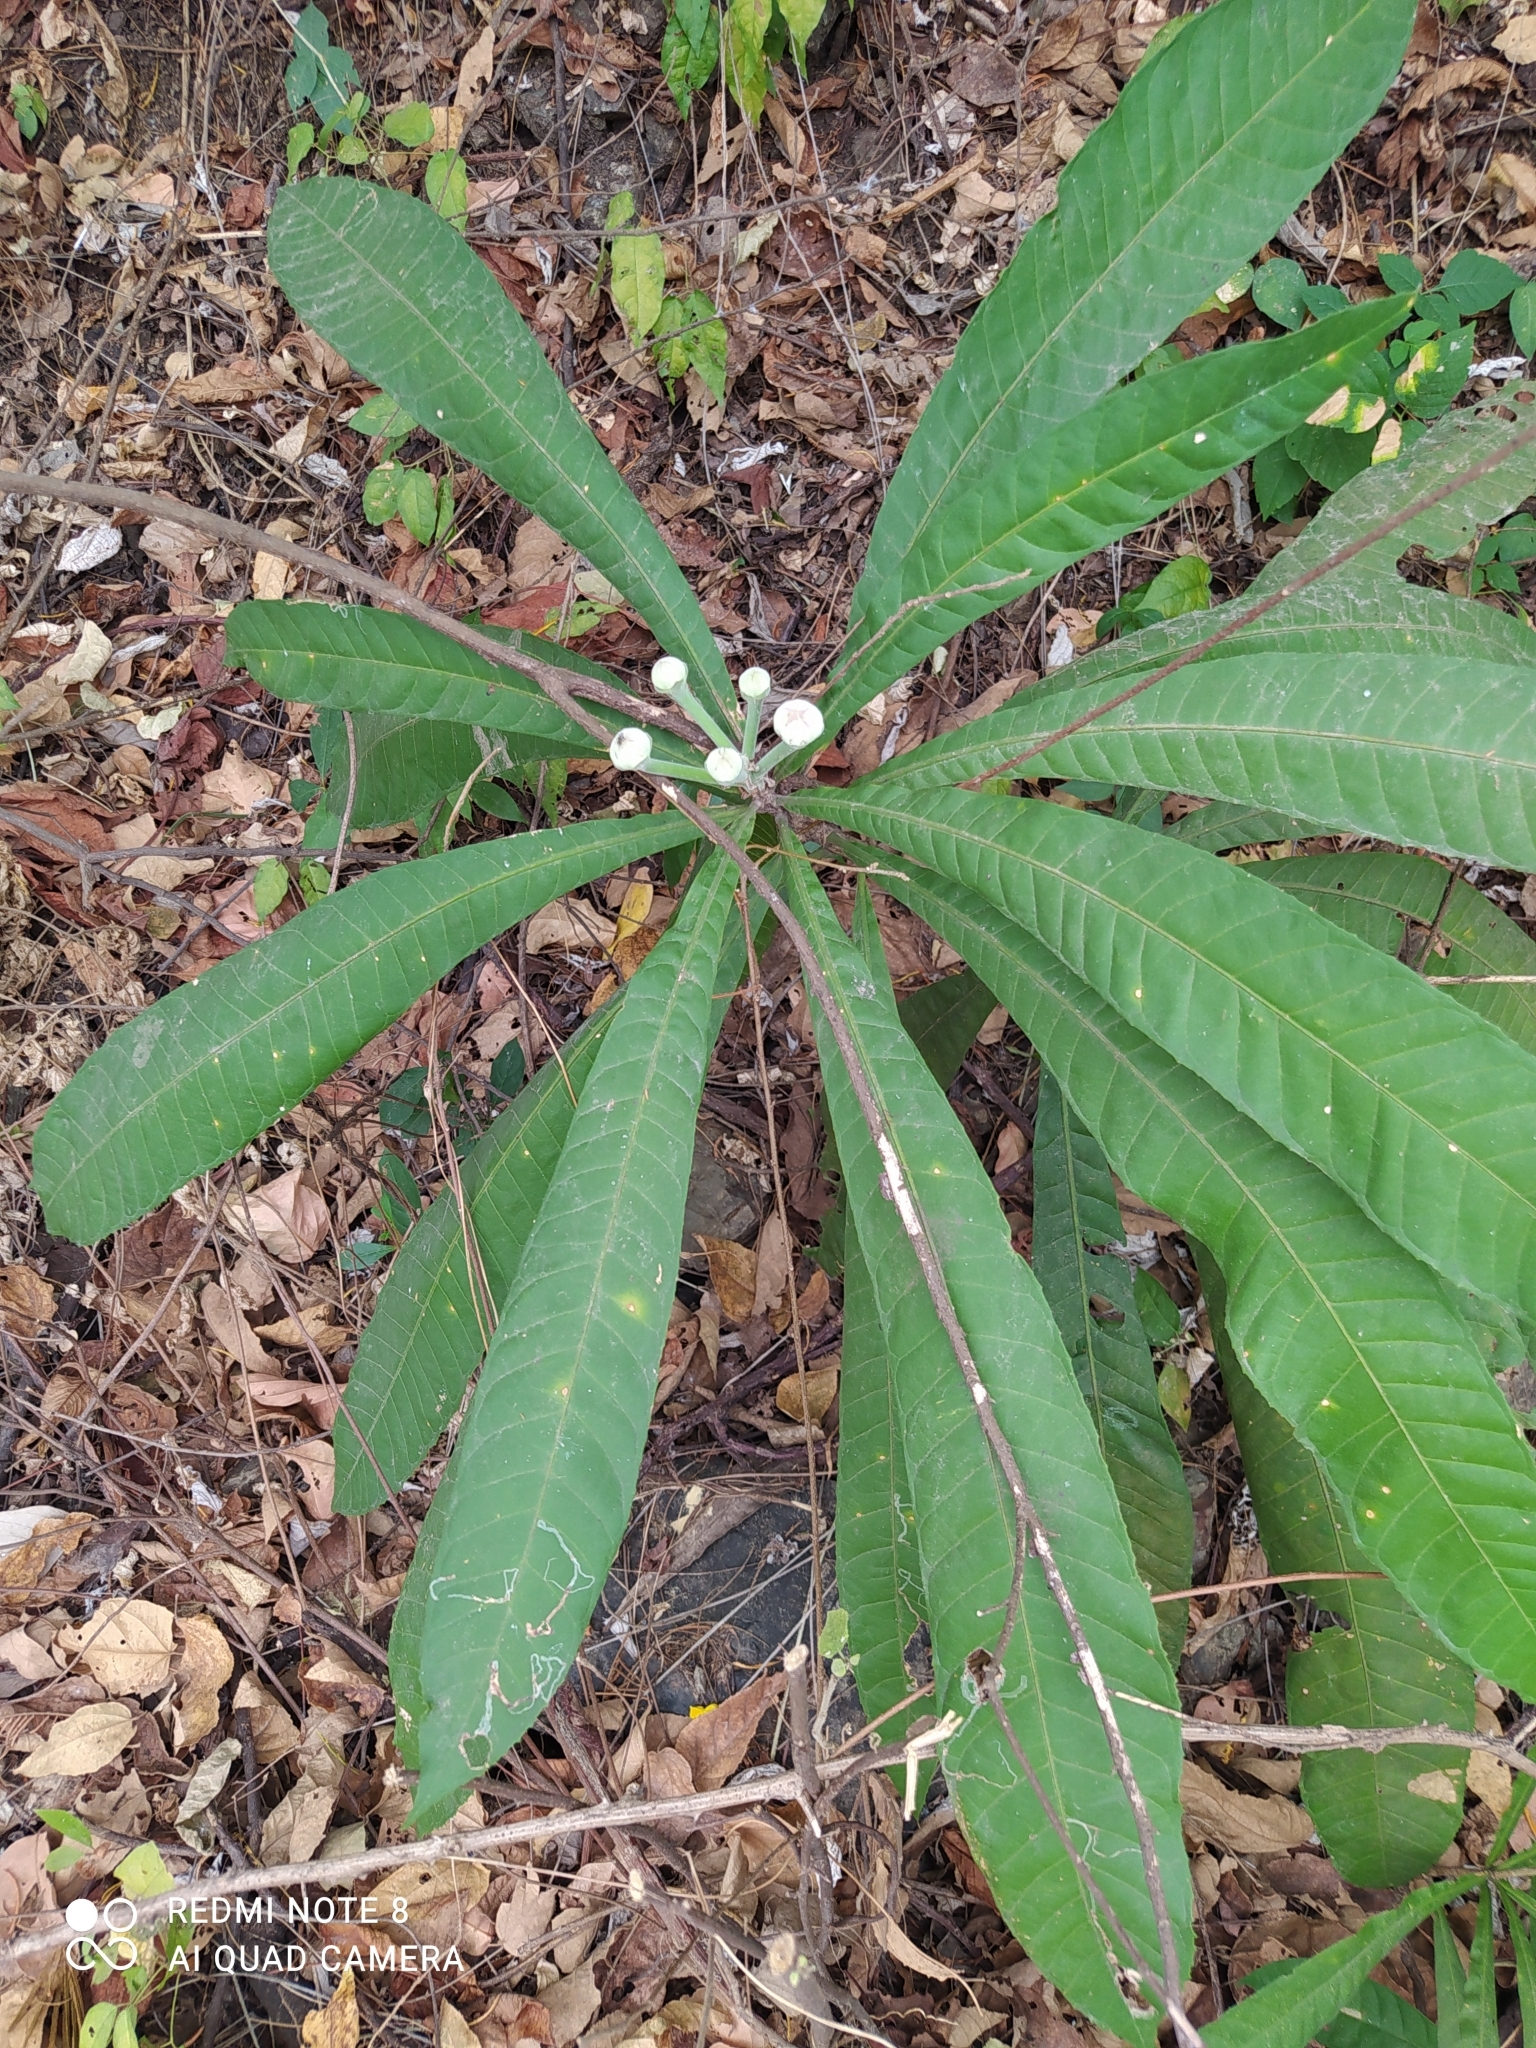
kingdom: Plantae
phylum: Tracheophyta
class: Magnoliopsida
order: Ericales
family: Lecythidaceae
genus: Gustavia
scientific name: Gustavia angustifolia
